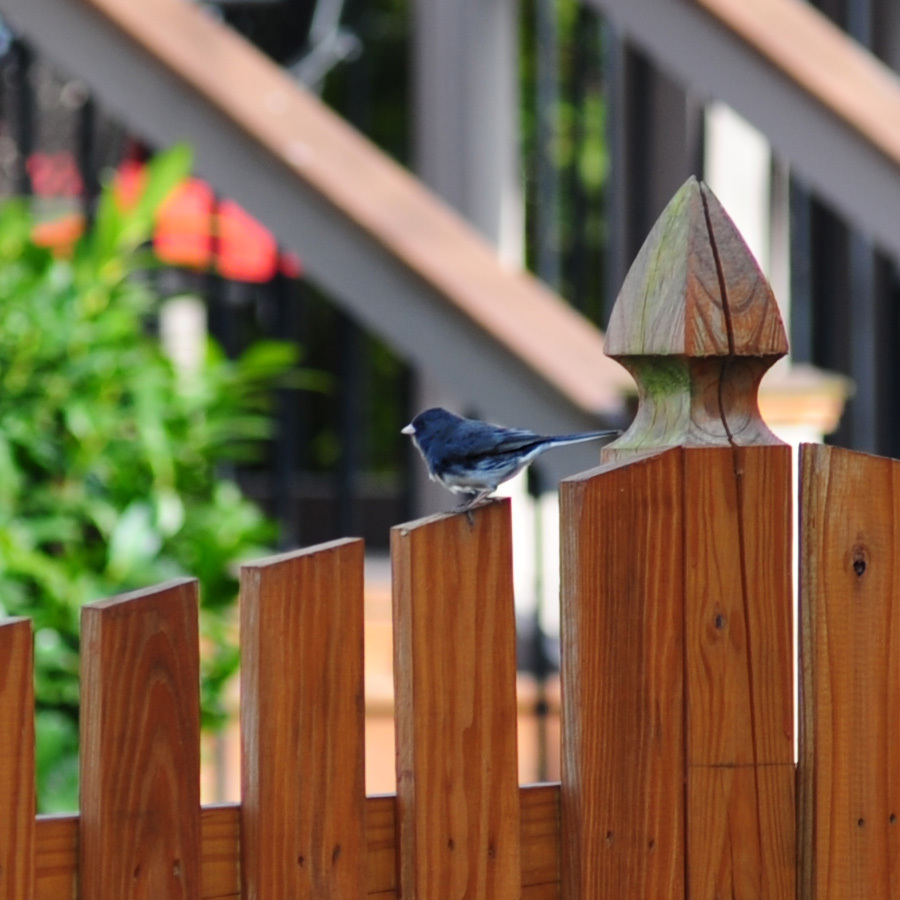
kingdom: Animalia
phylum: Chordata
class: Aves
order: Passeriformes
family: Passerellidae
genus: Junco
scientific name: Junco hyemalis
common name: Dark-eyed junco
